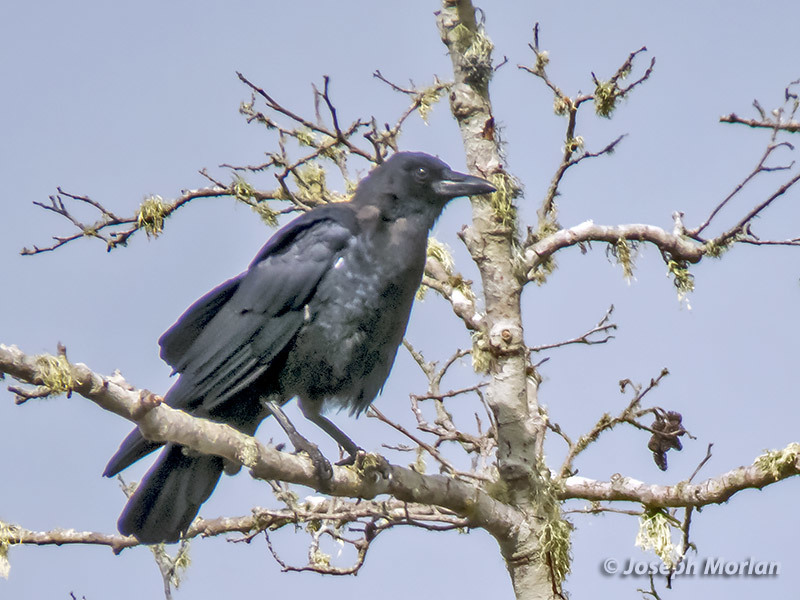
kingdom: Animalia
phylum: Chordata
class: Aves
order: Passeriformes
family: Corvidae
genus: Corvus
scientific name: Corvus brachyrhynchos
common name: American crow
